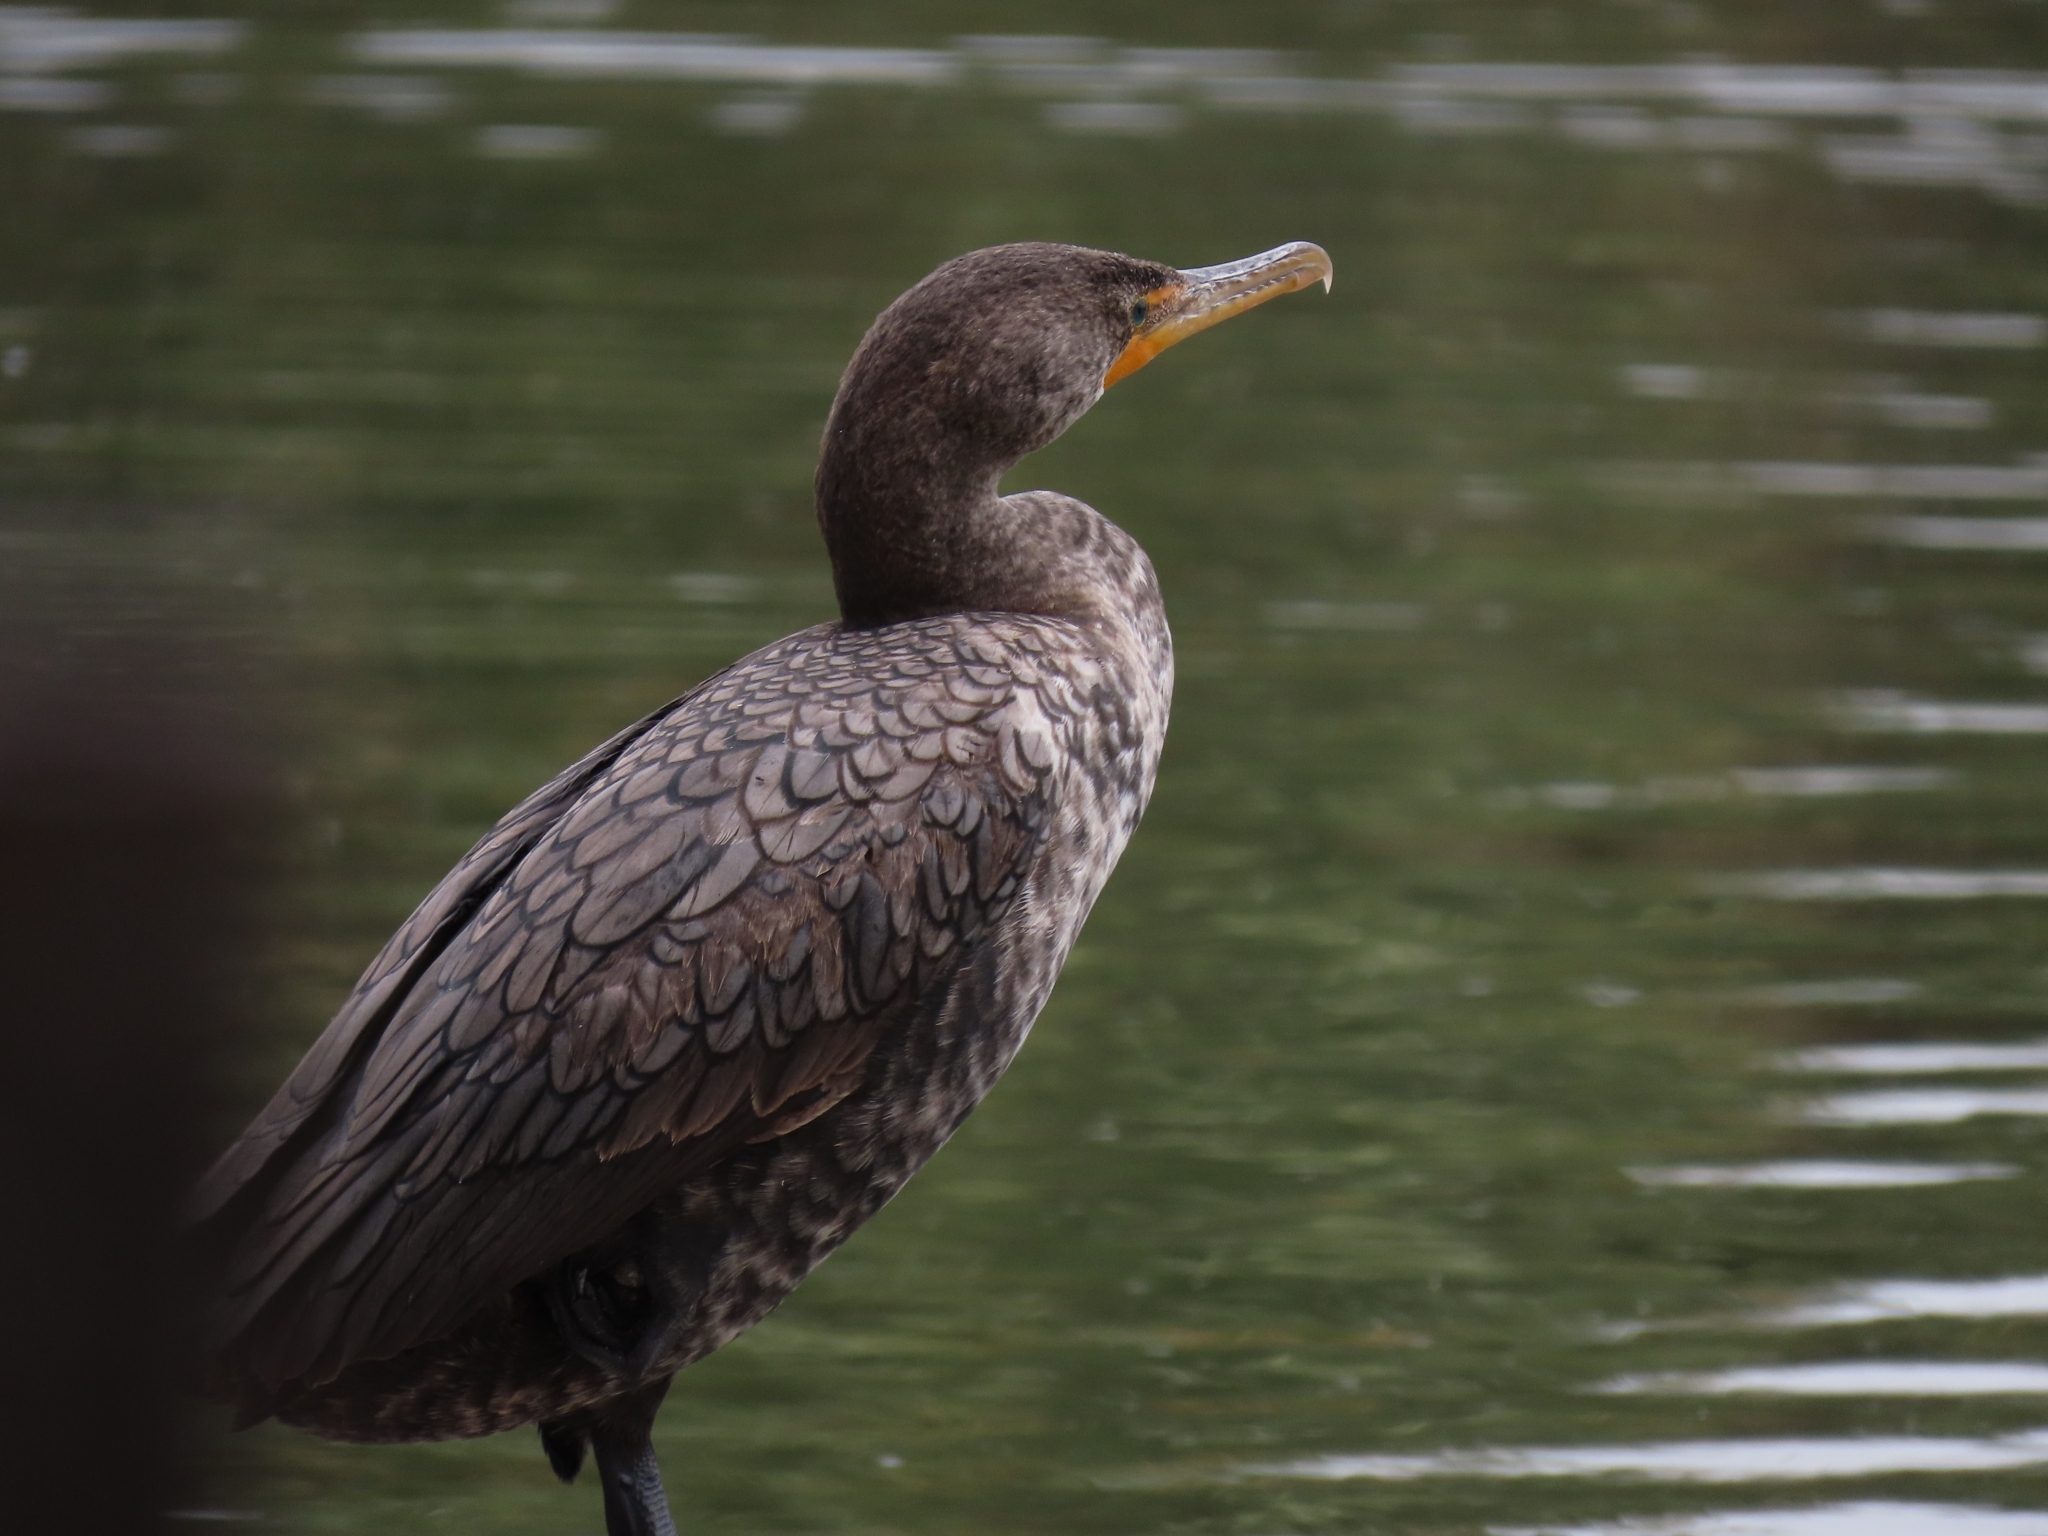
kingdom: Animalia
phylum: Chordata
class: Aves
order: Suliformes
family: Phalacrocoracidae
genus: Phalacrocorax
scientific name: Phalacrocorax auritus
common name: Double-crested cormorant
